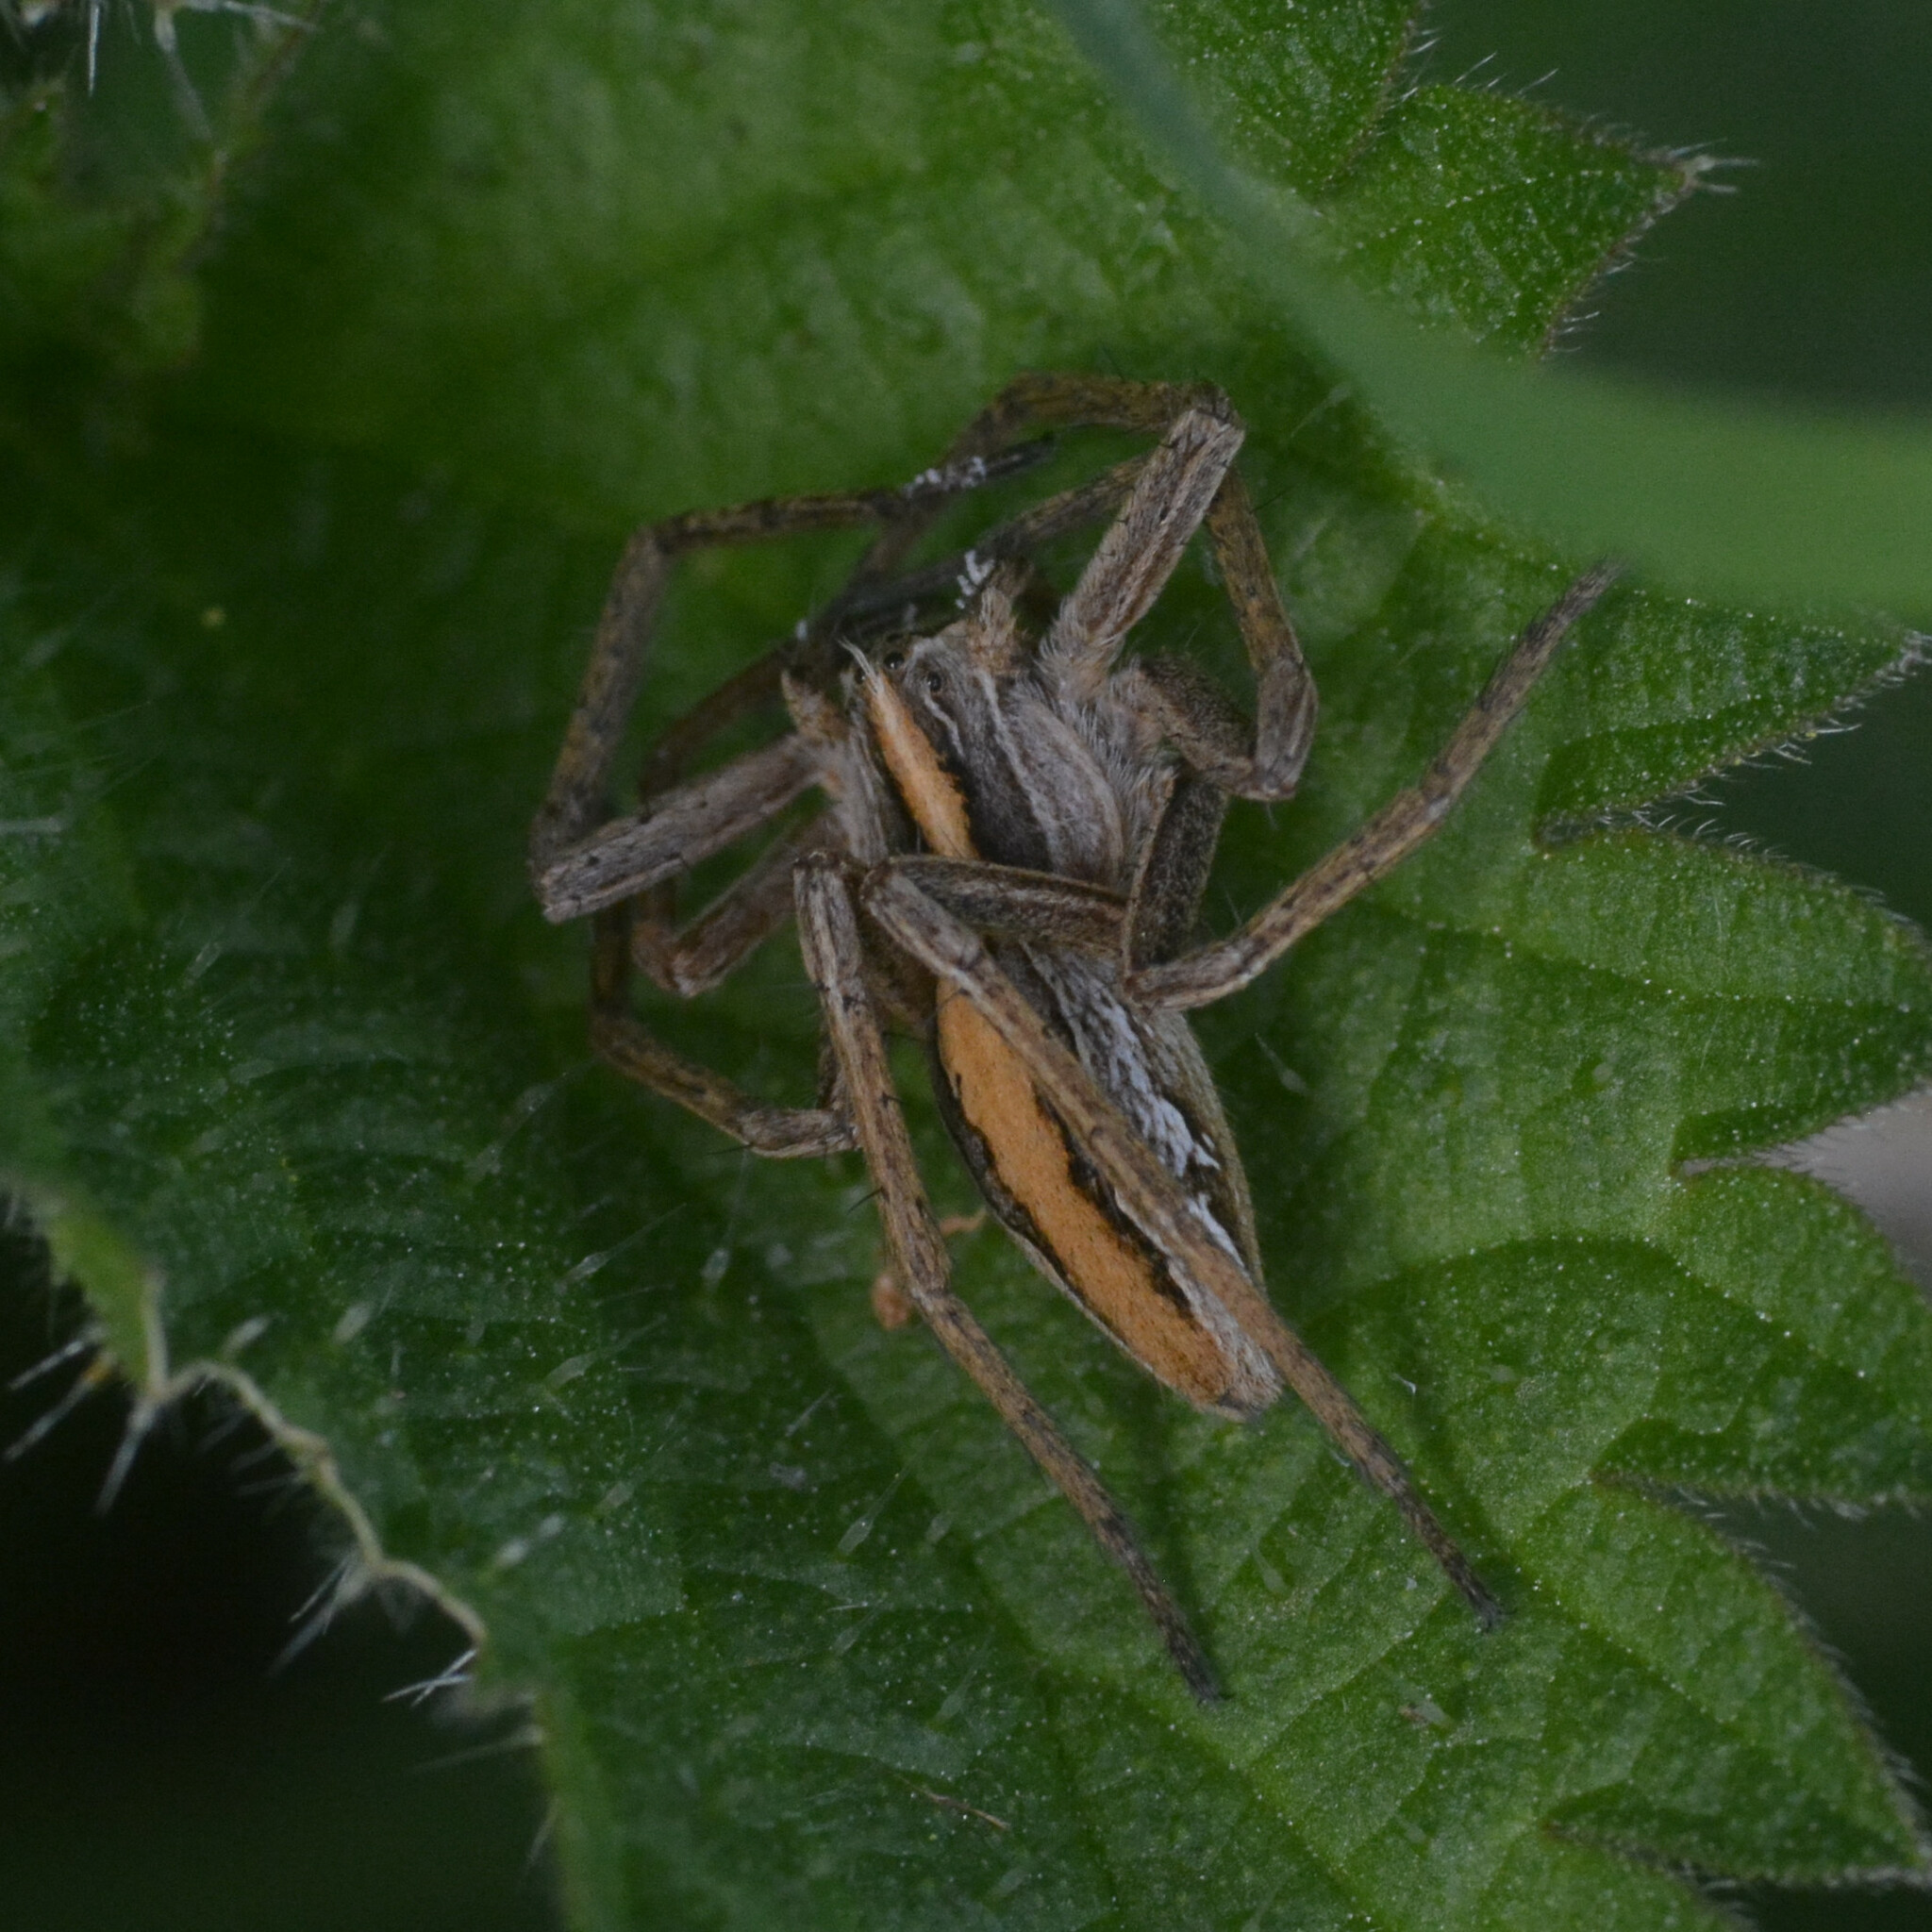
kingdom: Animalia
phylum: Arthropoda
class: Arachnida
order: Araneae
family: Pisauridae
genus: Pisaura
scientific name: Pisaura mirabilis
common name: Tent spider
